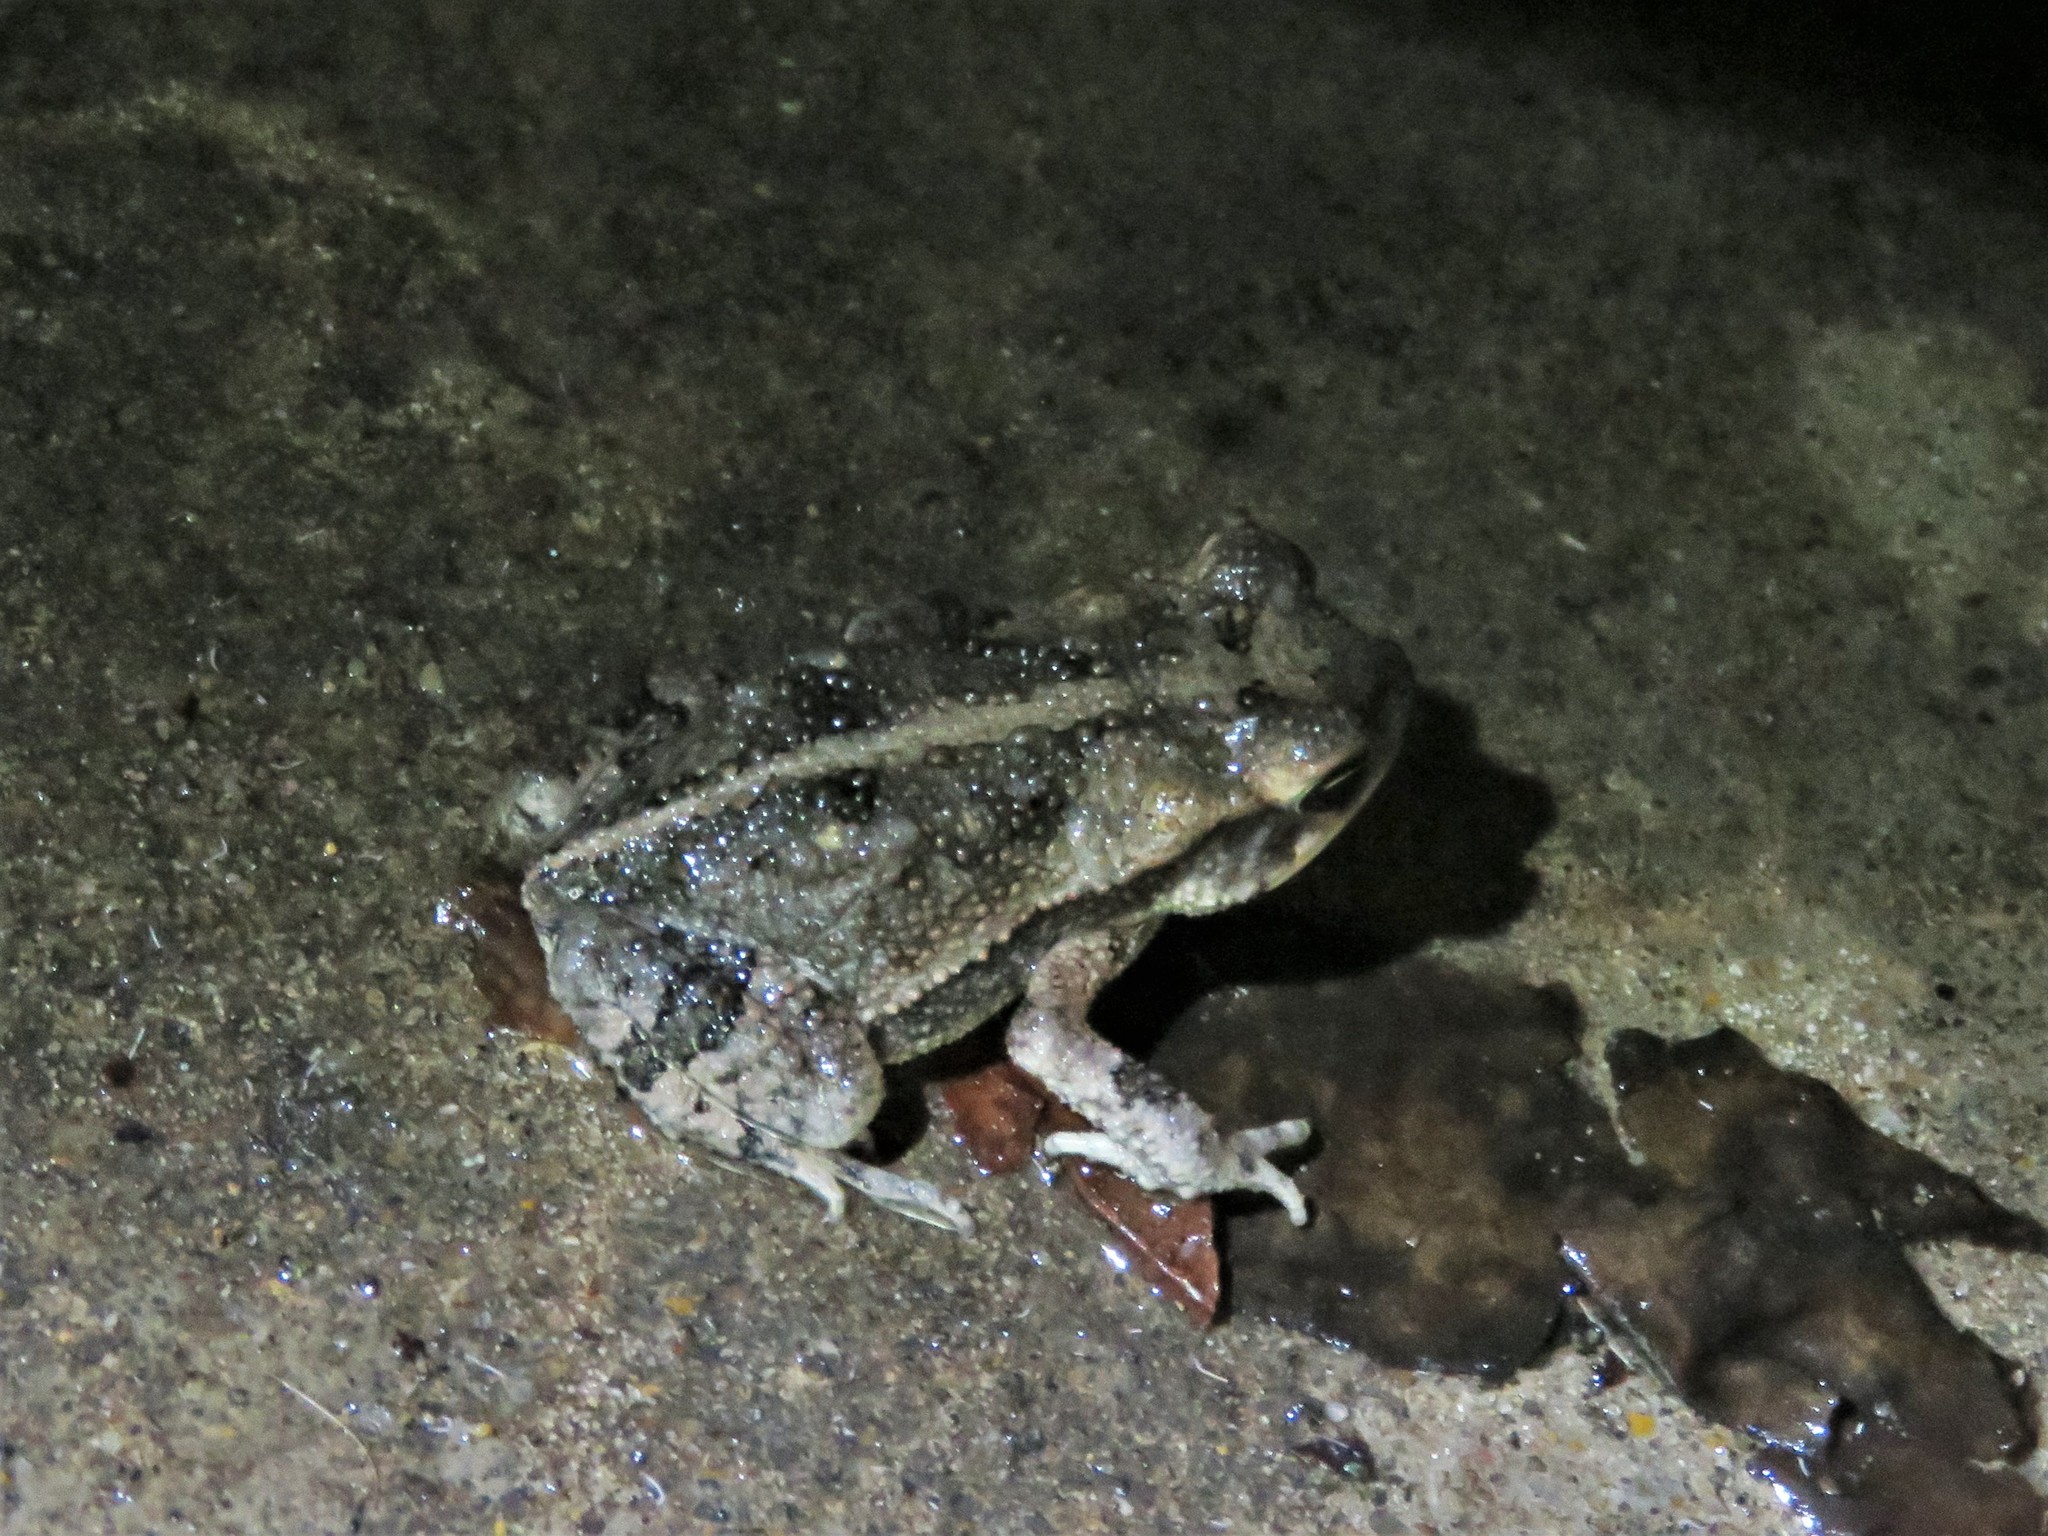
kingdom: Animalia
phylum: Chordata
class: Amphibia
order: Anura
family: Bufonidae
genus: Incilius
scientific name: Incilius nebulifer
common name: Gulf coast toad
